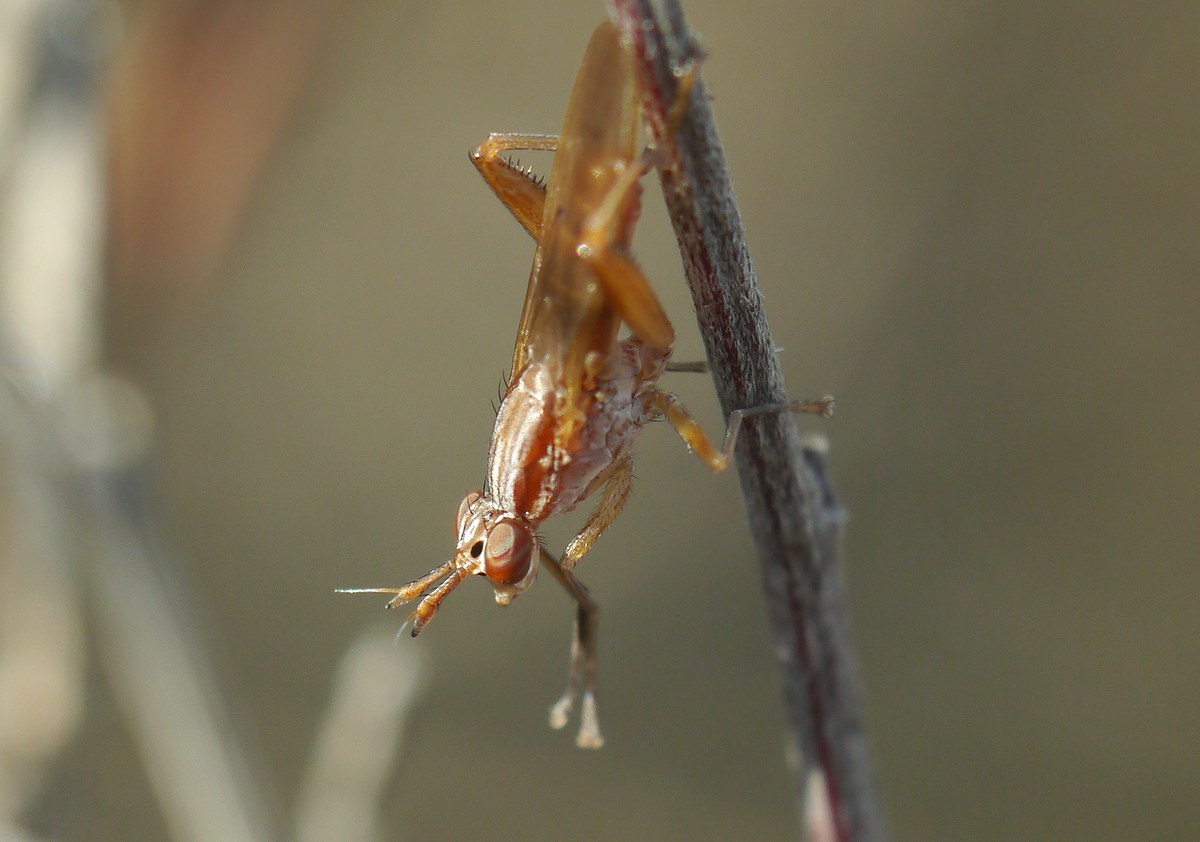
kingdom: Animalia
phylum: Arthropoda
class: Insecta
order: Diptera
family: Sciomyzidae
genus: Sepedon
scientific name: Sepedon spinipes
